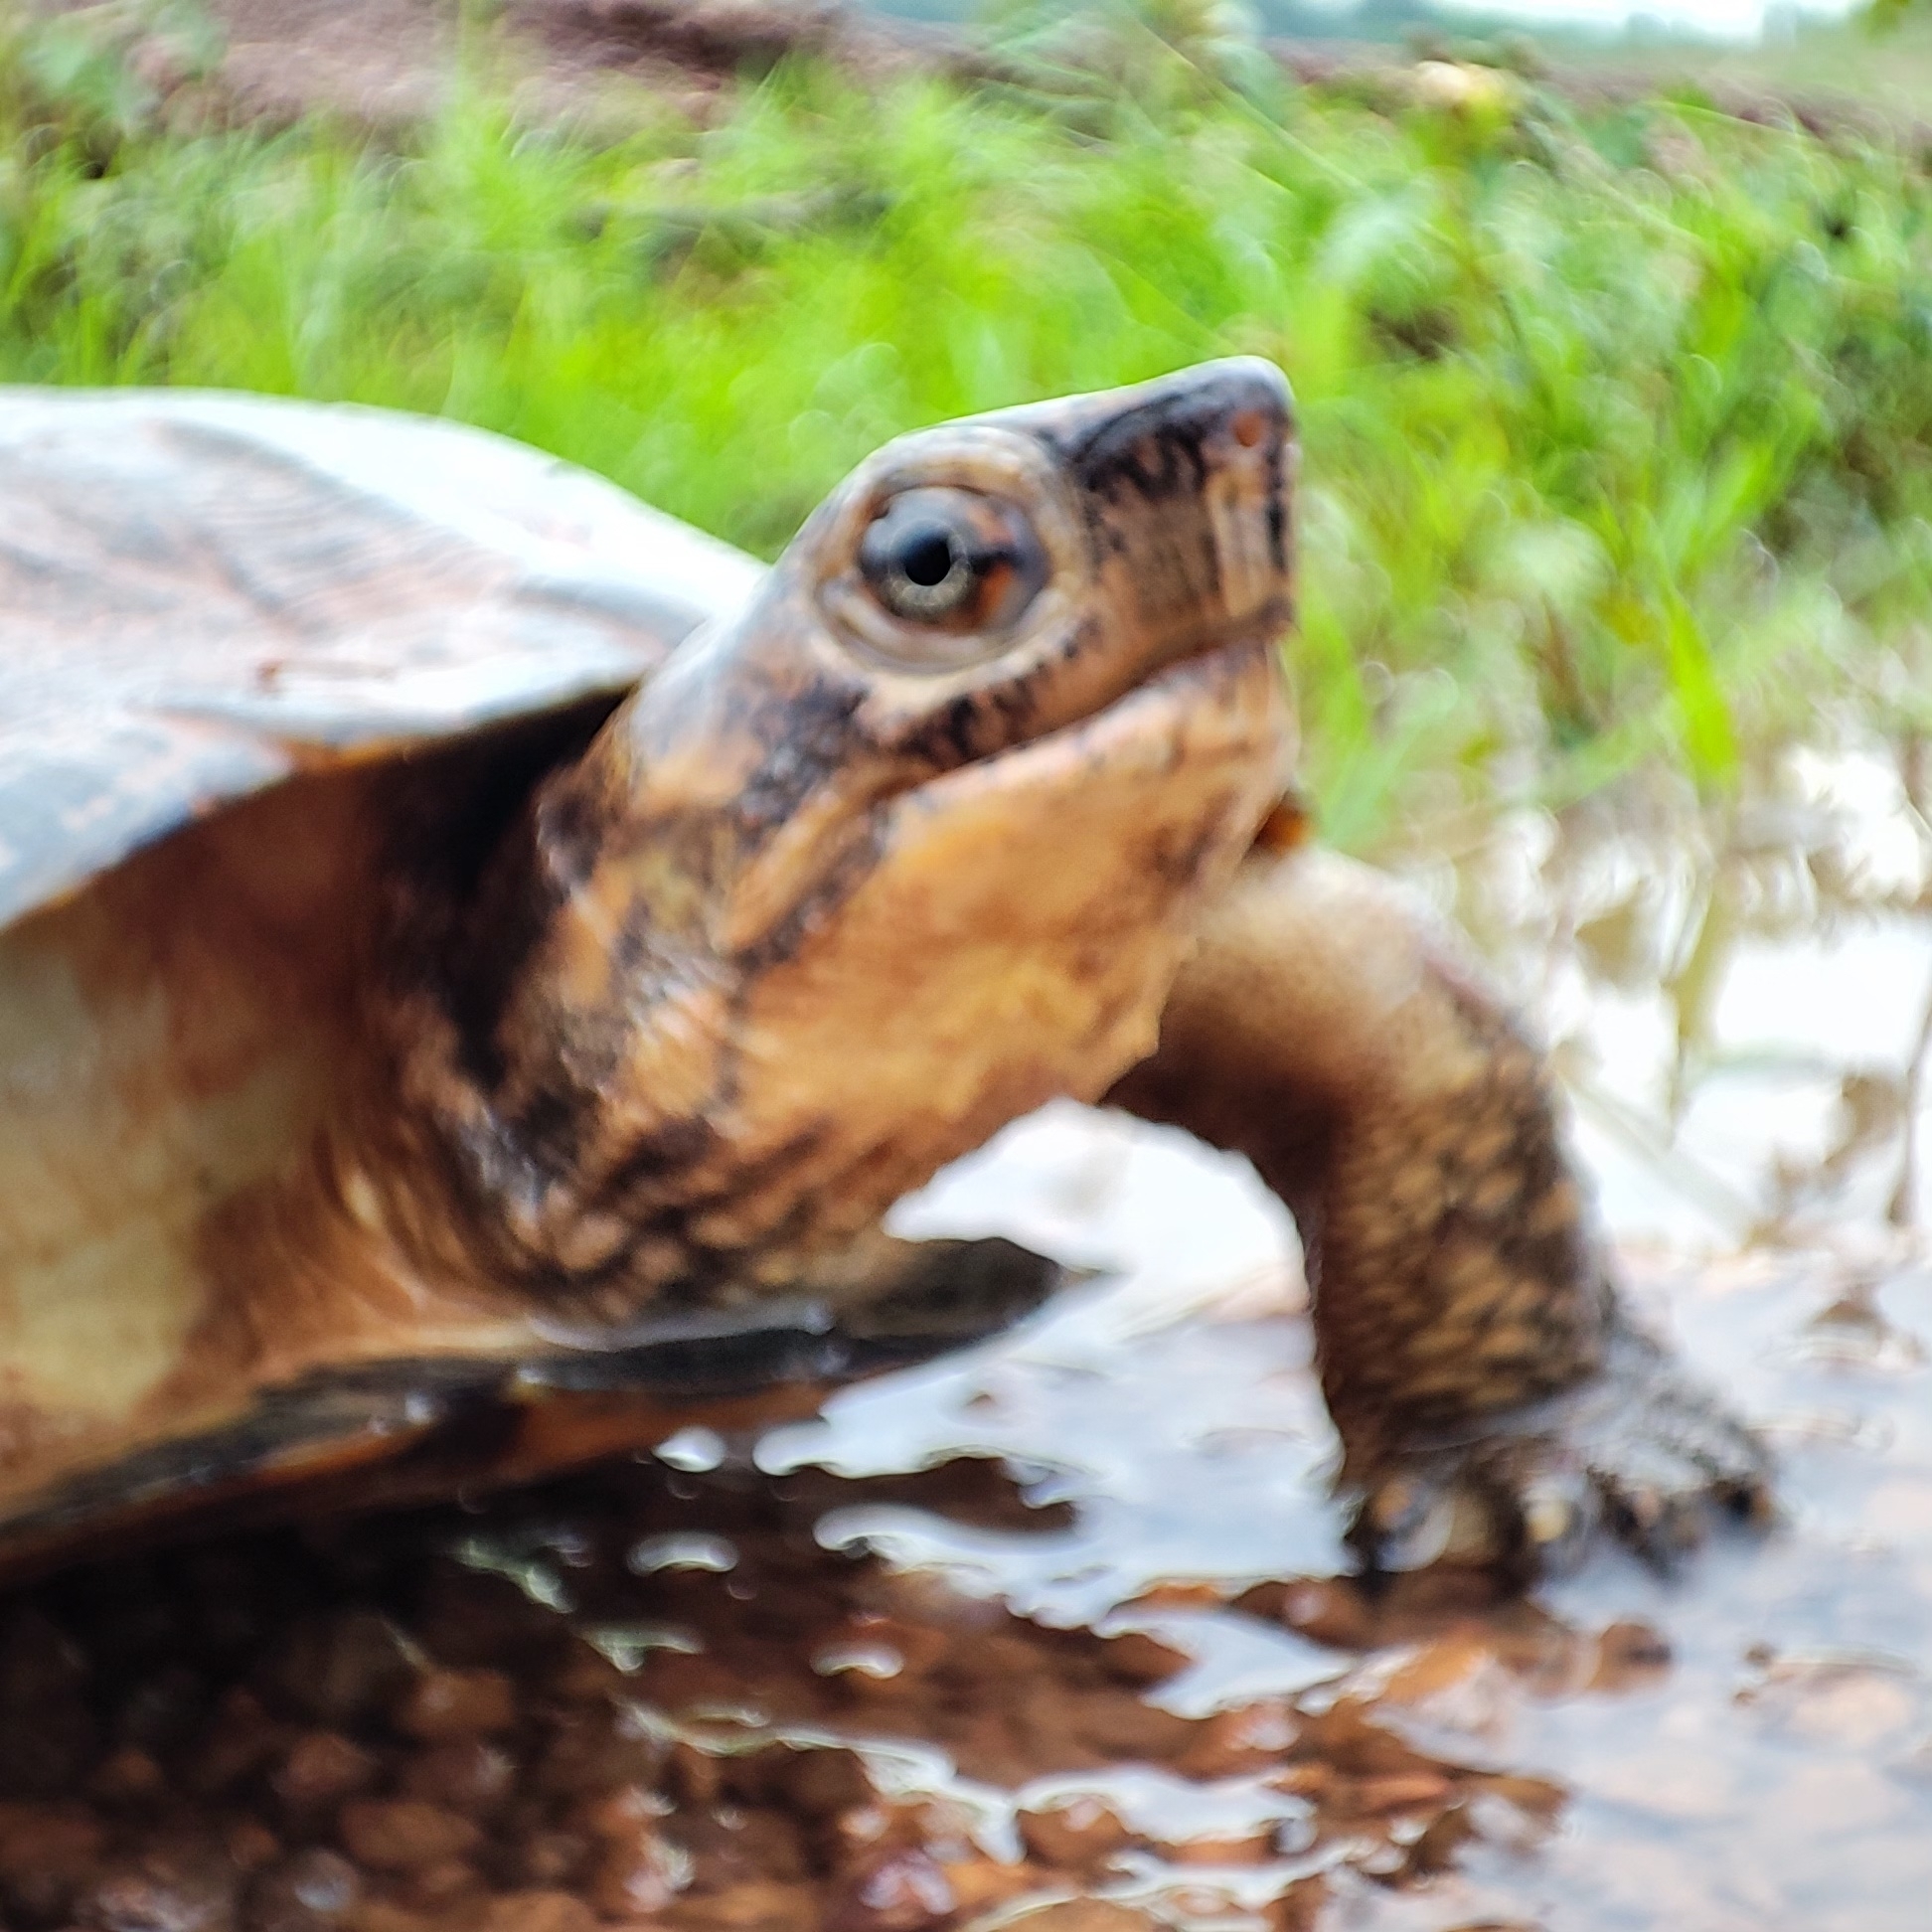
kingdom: Animalia
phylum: Chordata
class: Testudines
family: Geoemydidae
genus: Cyclemys
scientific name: Cyclemys pulchristriata
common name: Eastern black-bridged leaf turtle
